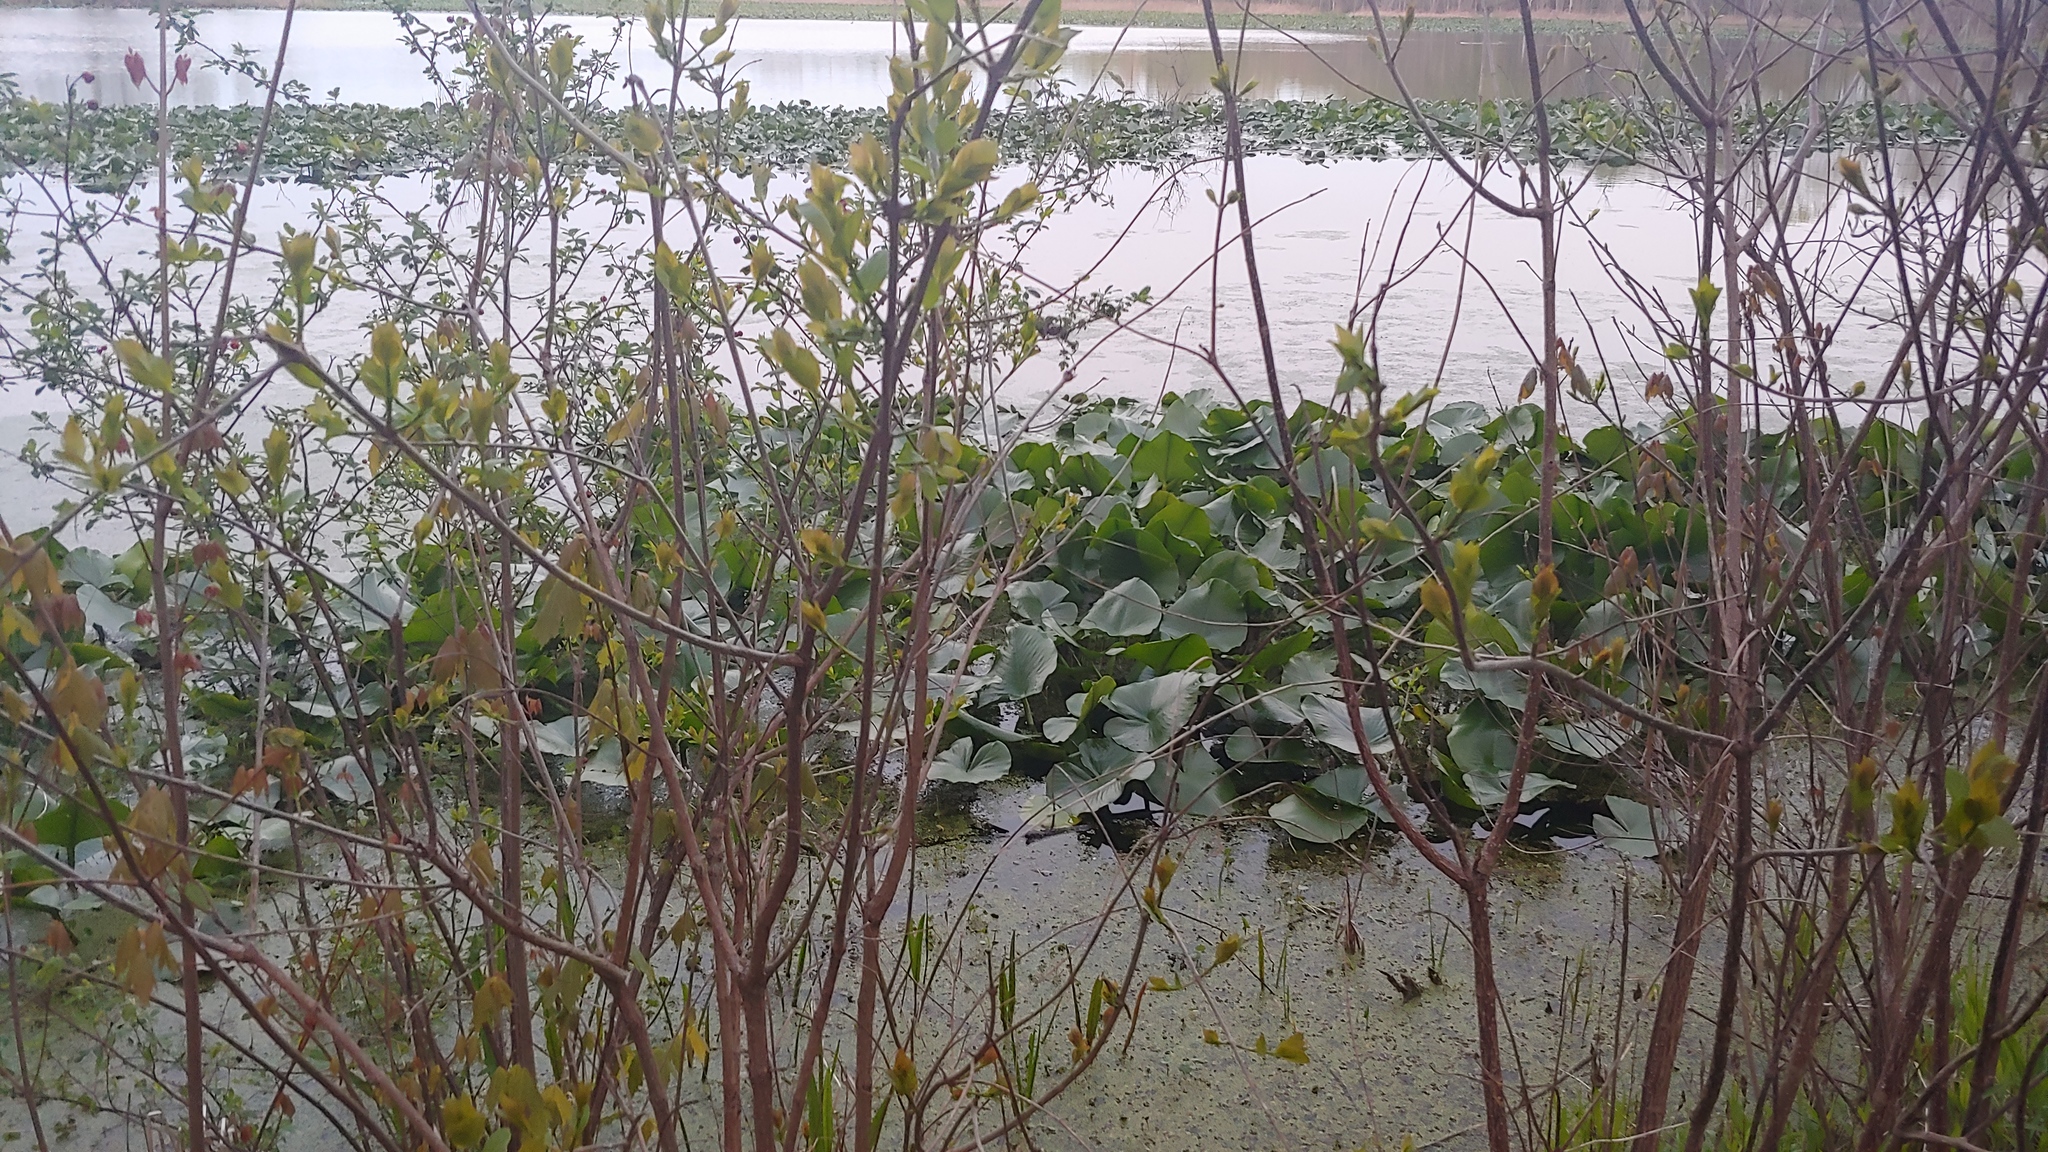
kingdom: Plantae
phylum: Tracheophyta
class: Magnoliopsida
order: Nymphaeales
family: Nymphaeaceae
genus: Nuphar
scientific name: Nuphar advena
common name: Spatter-dock
